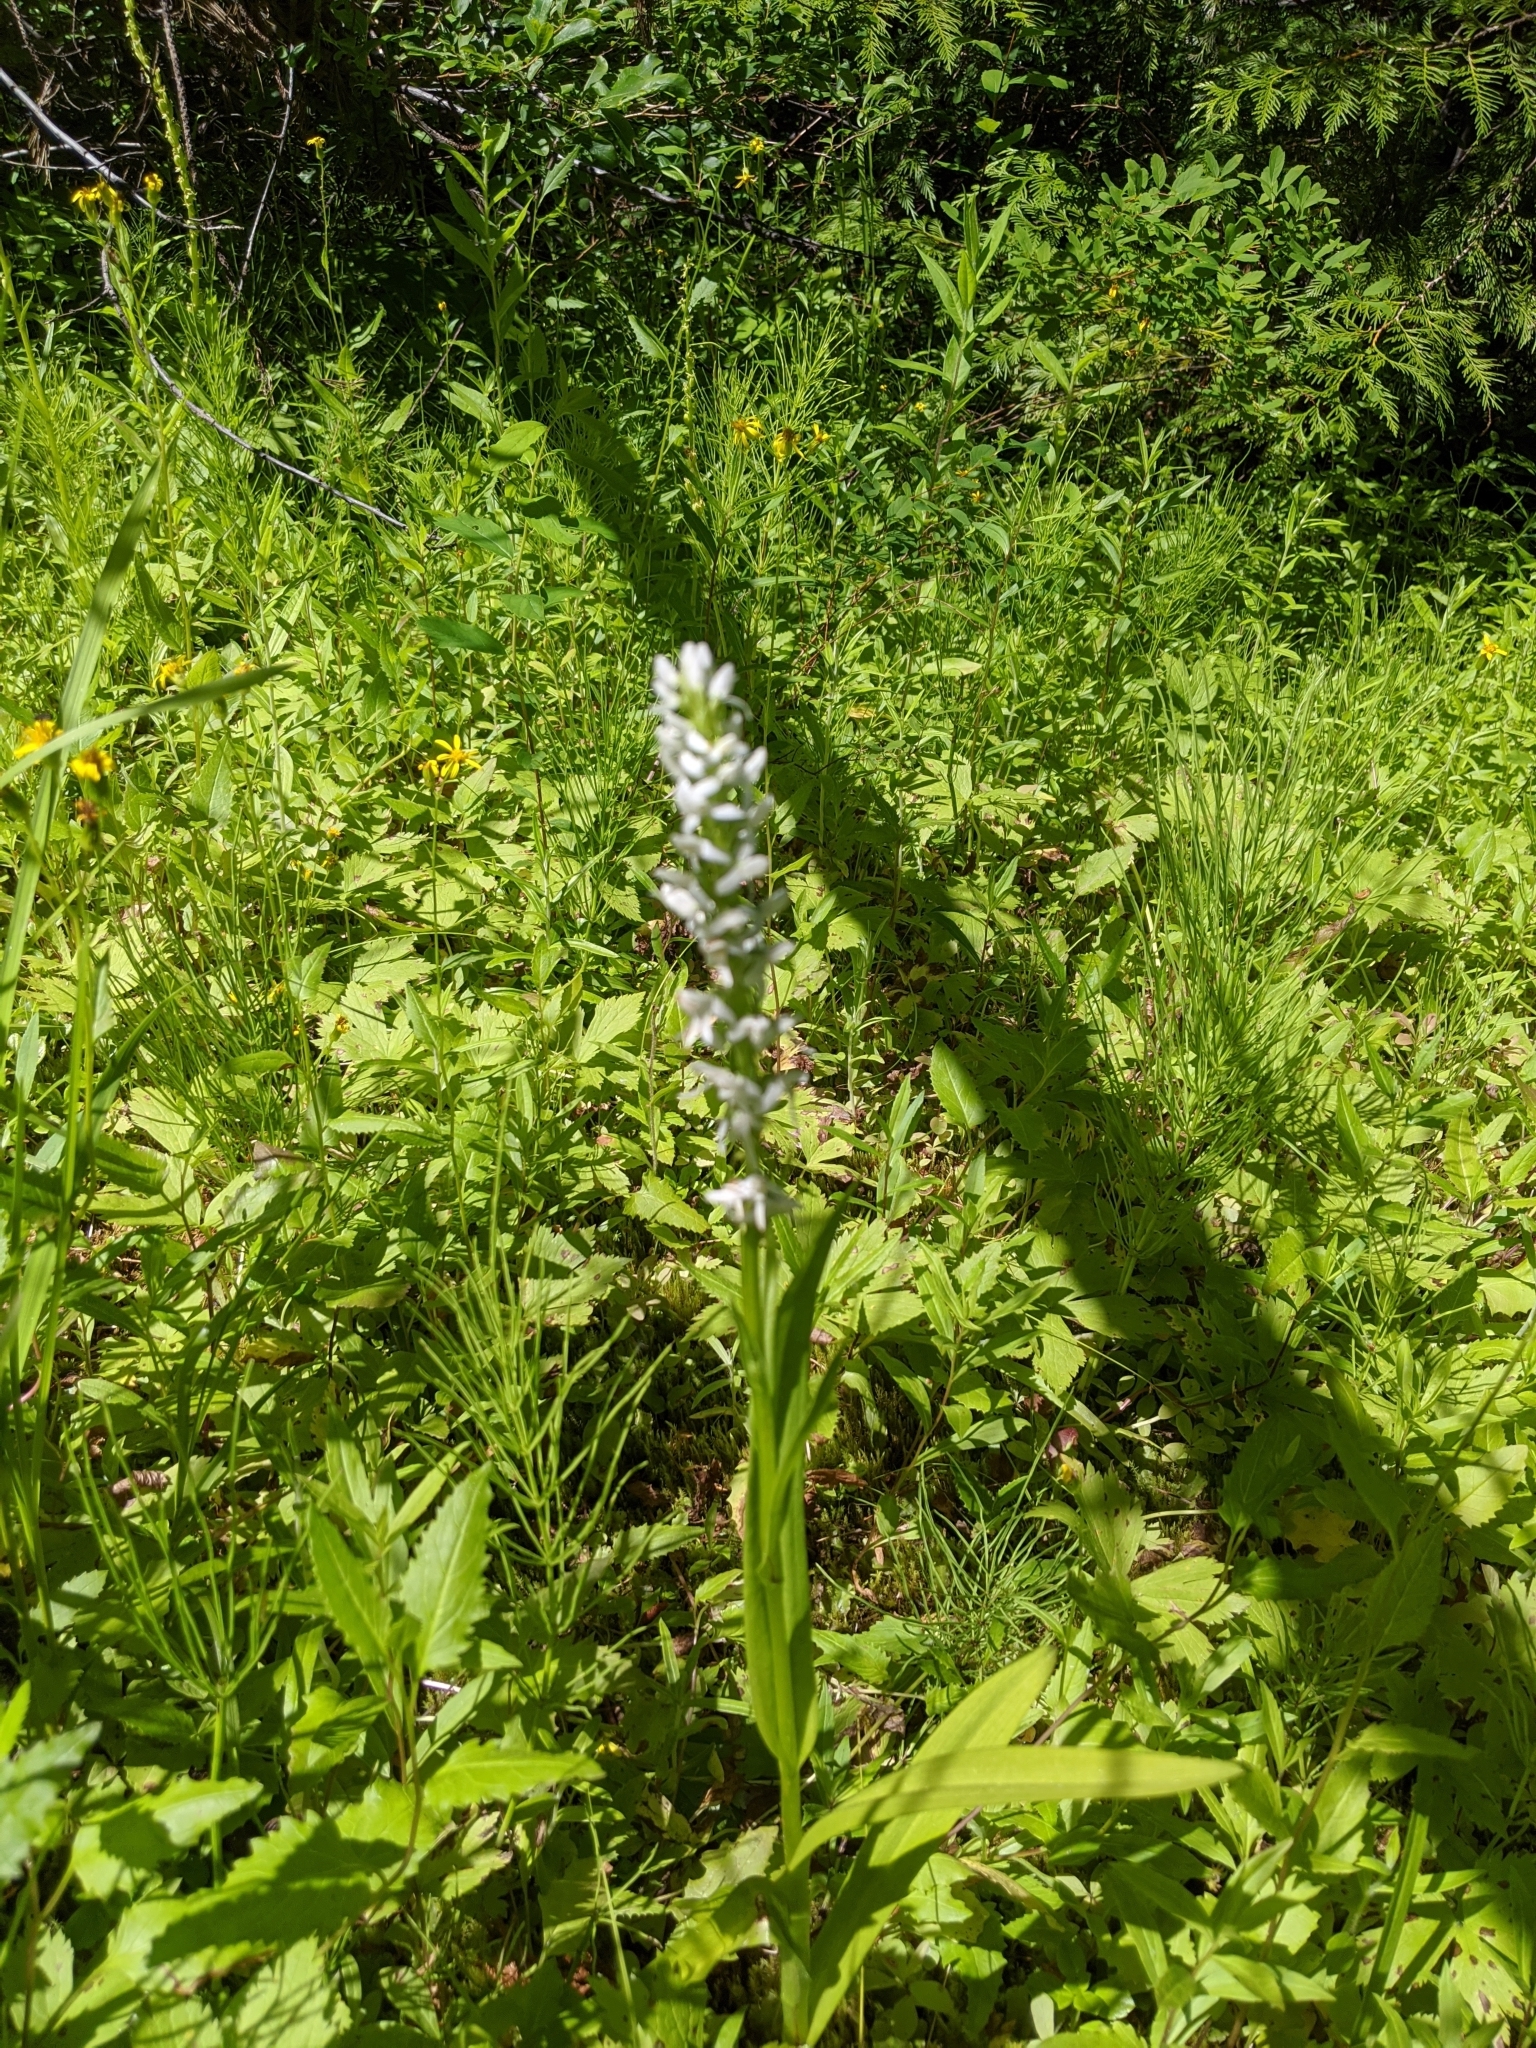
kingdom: Plantae
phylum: Tracheophyta
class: Liliopsida
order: Asparagales
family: Orchidaceae
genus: Platanthera
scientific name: Platanthera dilatata
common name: Bog candles
